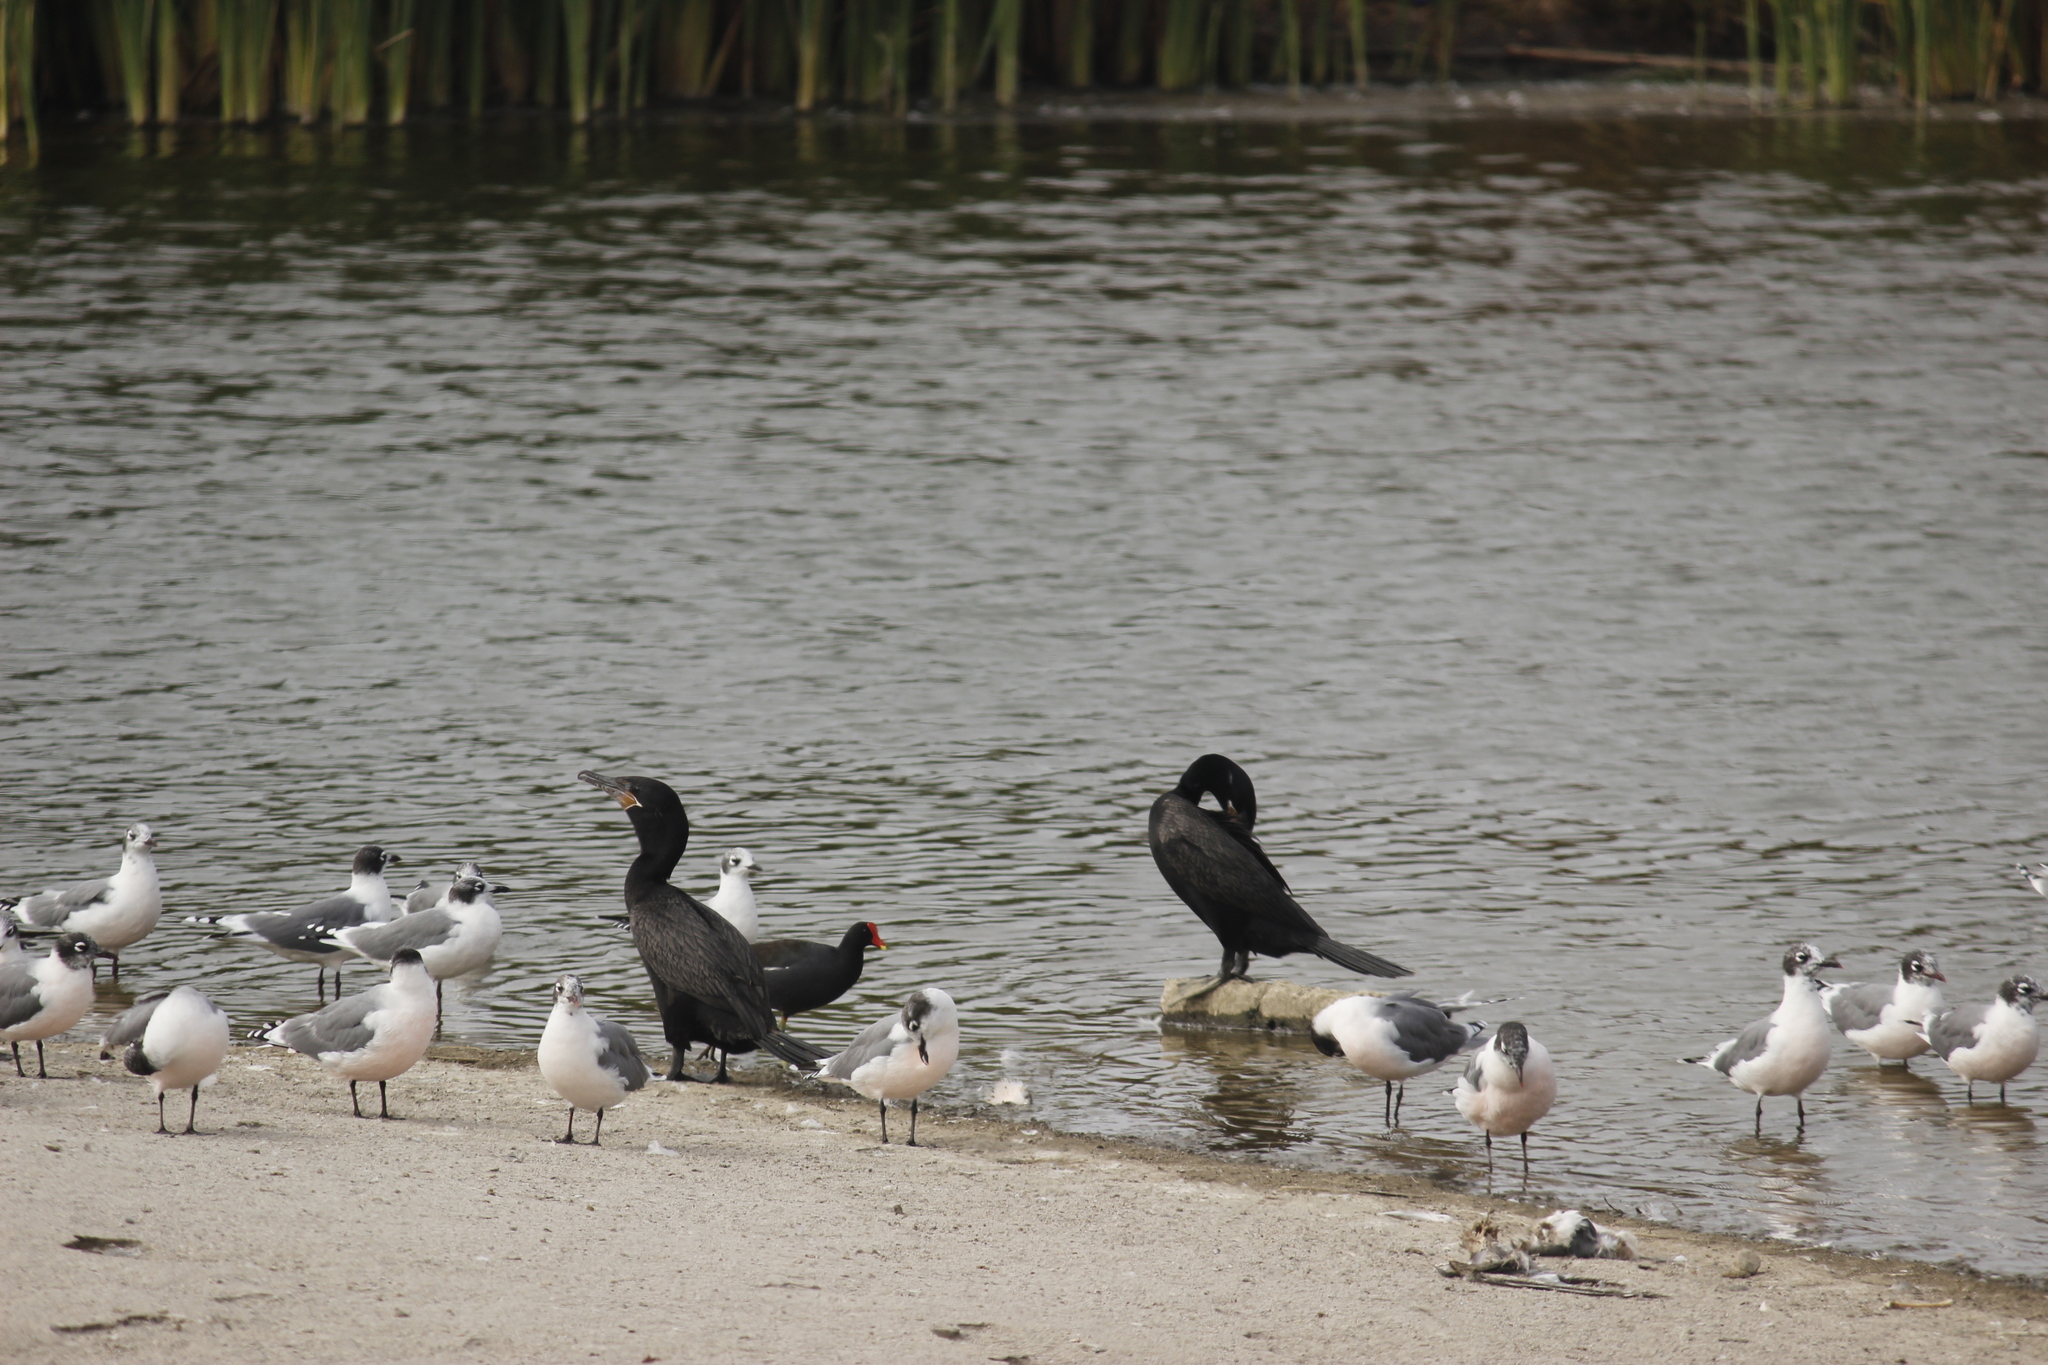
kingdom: Animalia
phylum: Chordata
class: Aves
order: Suliformes
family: Phalacrocoracidae
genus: Phalacrocorax
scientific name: Phalacrocorax brasilianus
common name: Neotropic cormorant
